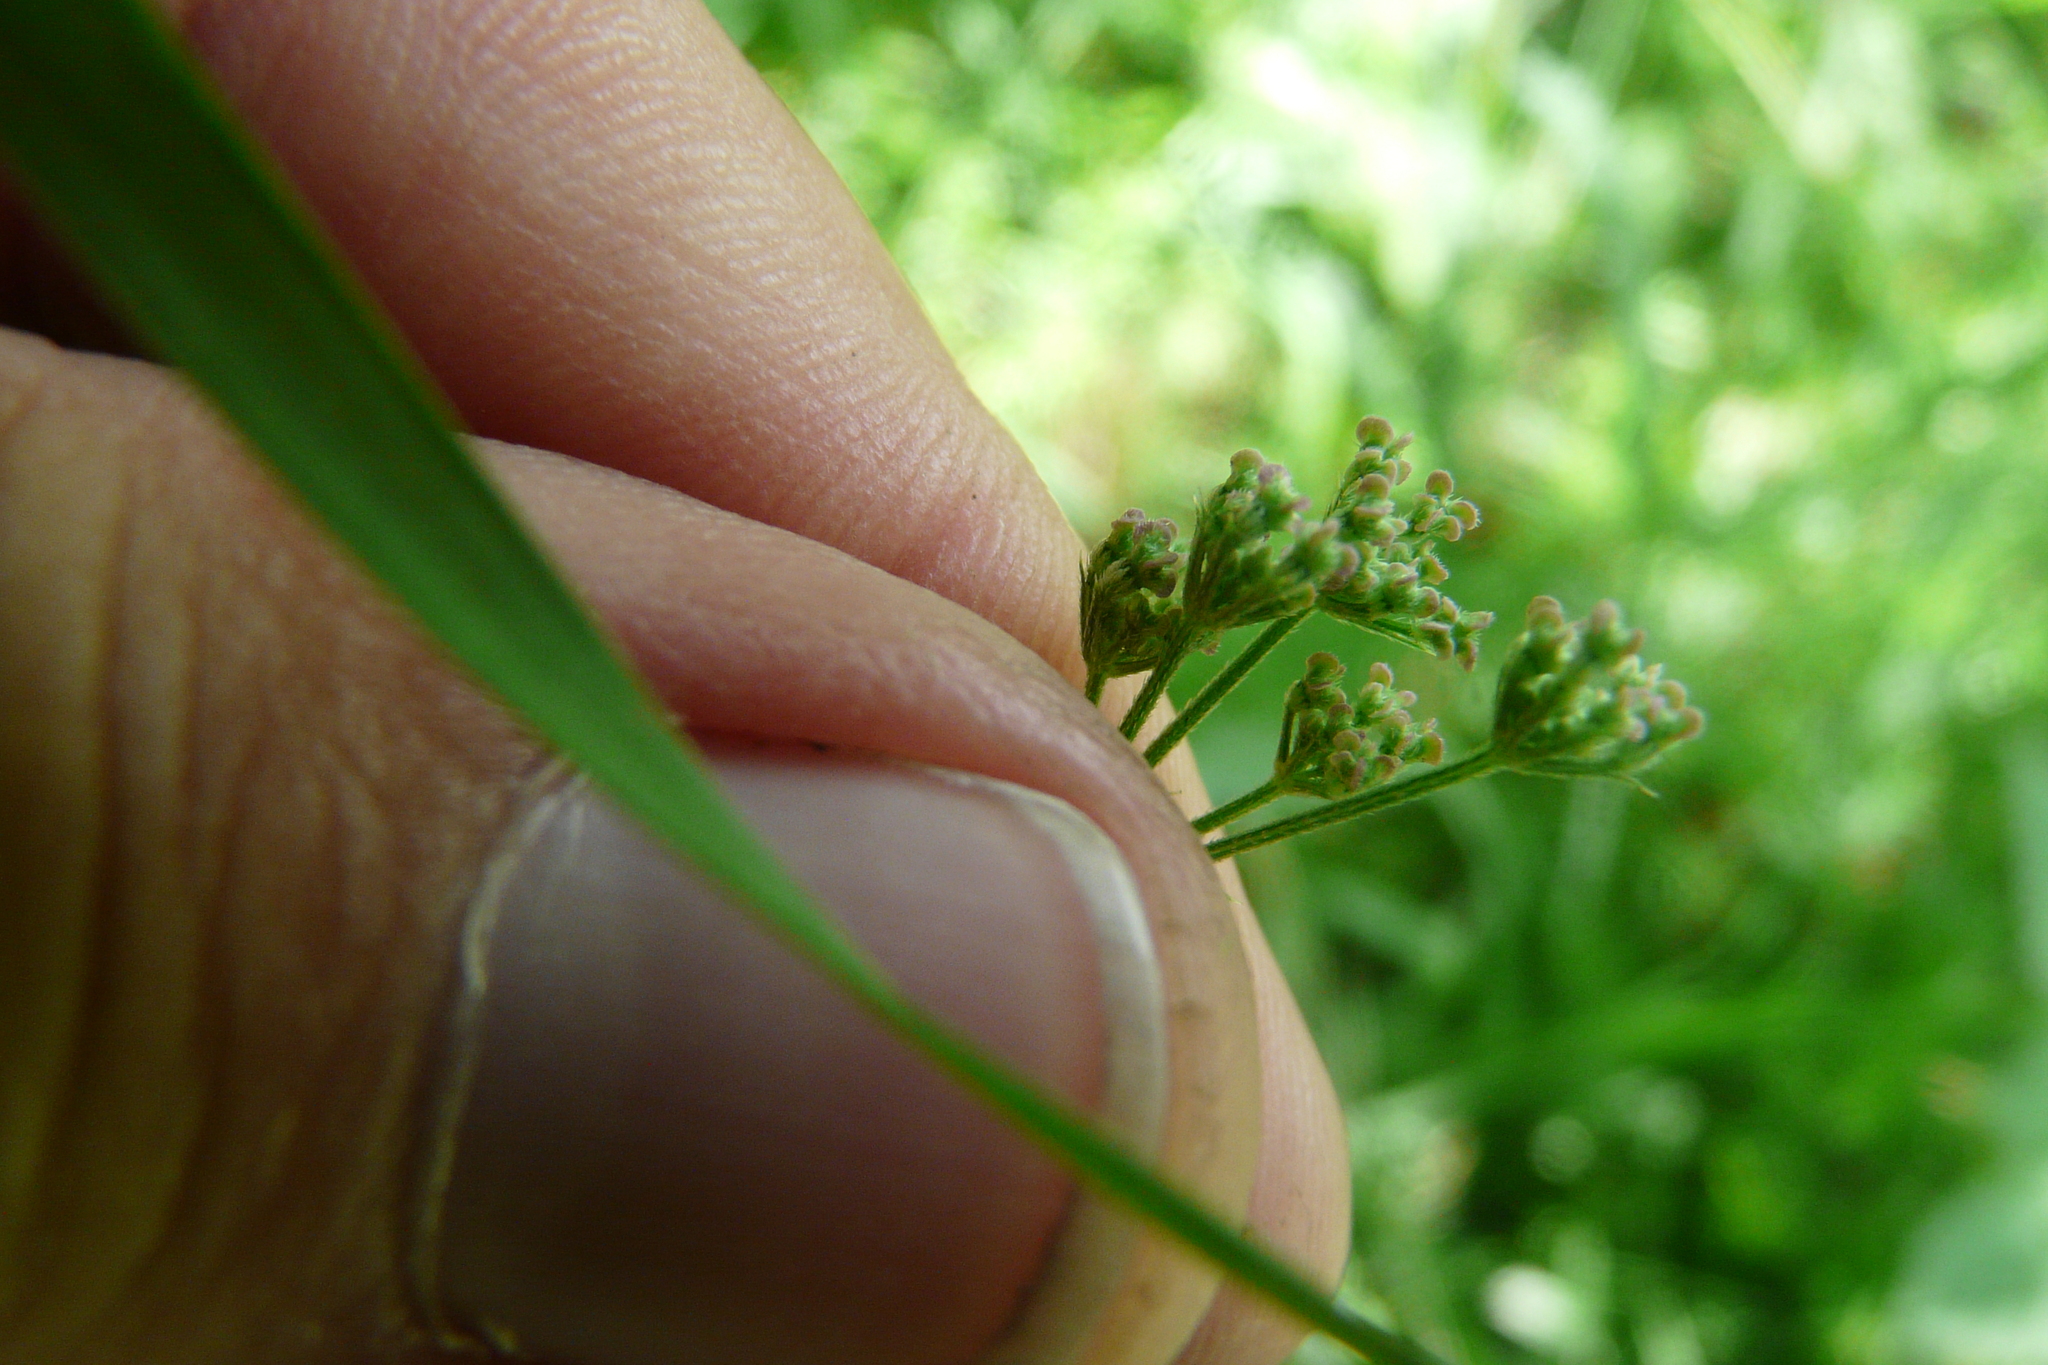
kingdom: Plantae
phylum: Tracheophyta
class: Magnoliopsida
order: Apiales
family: Apiaceae
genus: Torilis
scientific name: Torilis japonica
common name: Upright hedge-parsley
